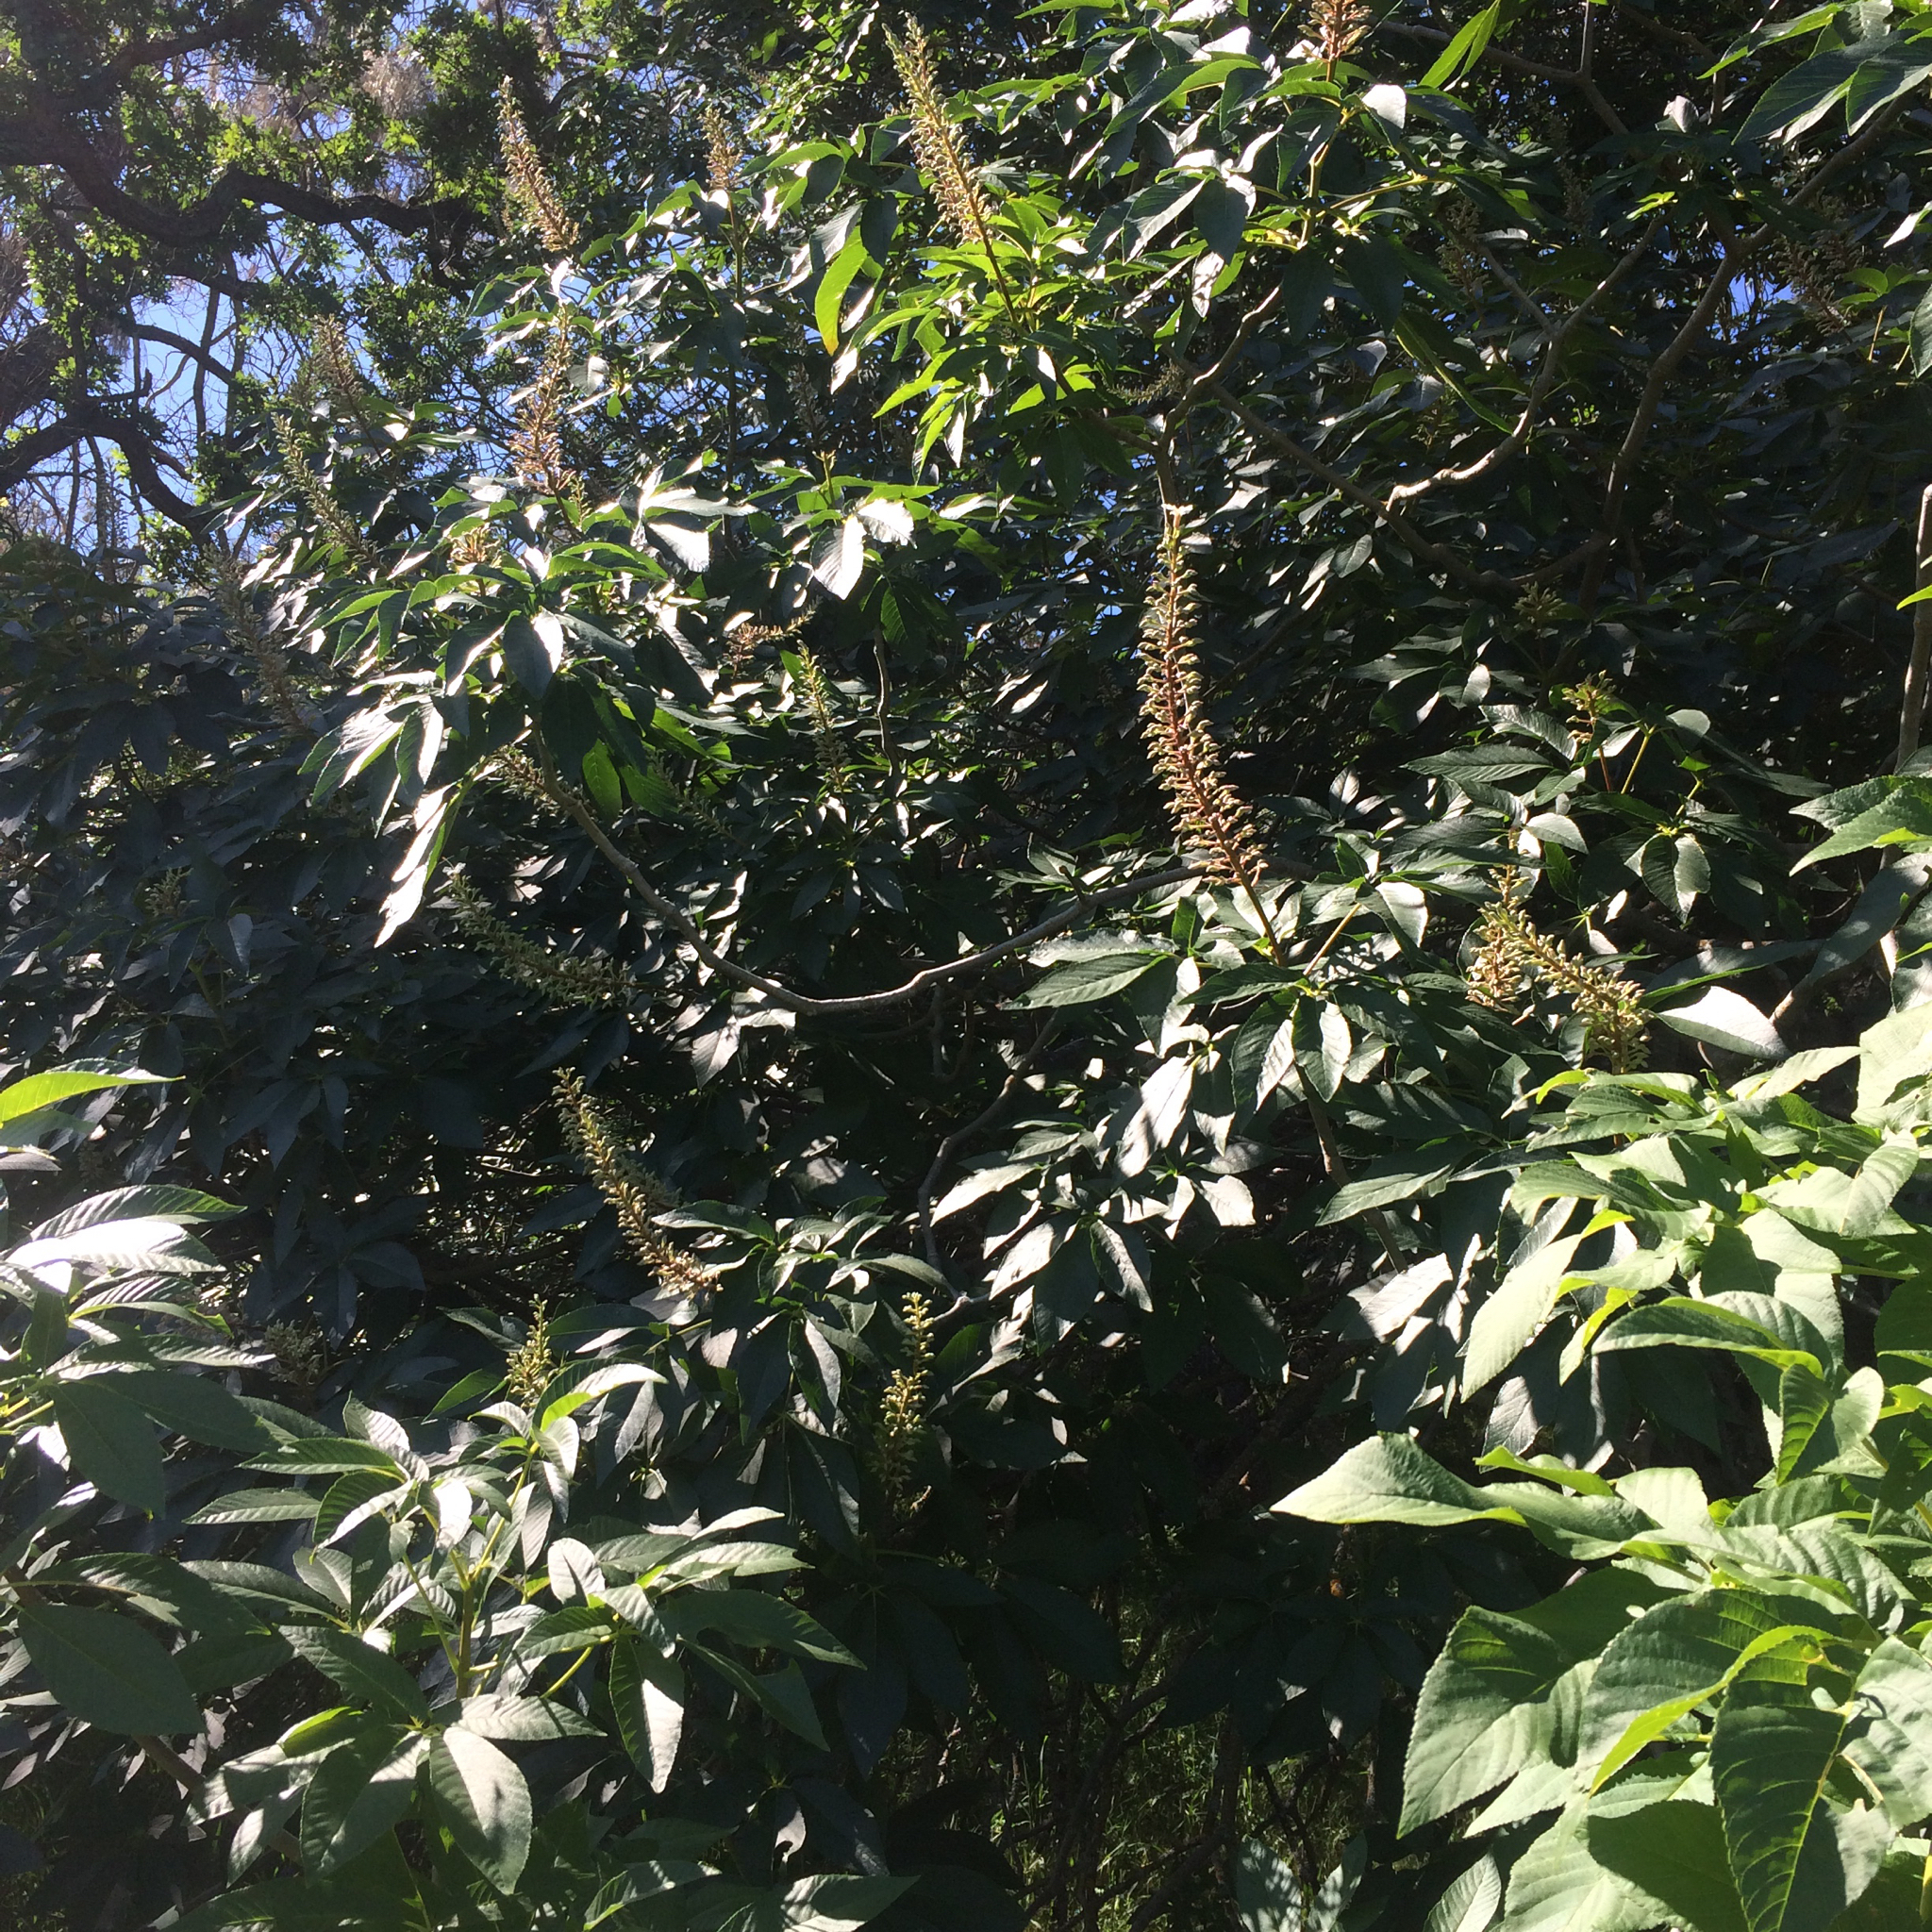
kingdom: Plantae
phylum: Tracheophyta
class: Magnoliopsida
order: Sapindales
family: Sapindaceae
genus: Aesculus
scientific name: Aesculus californica
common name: California buckeye
